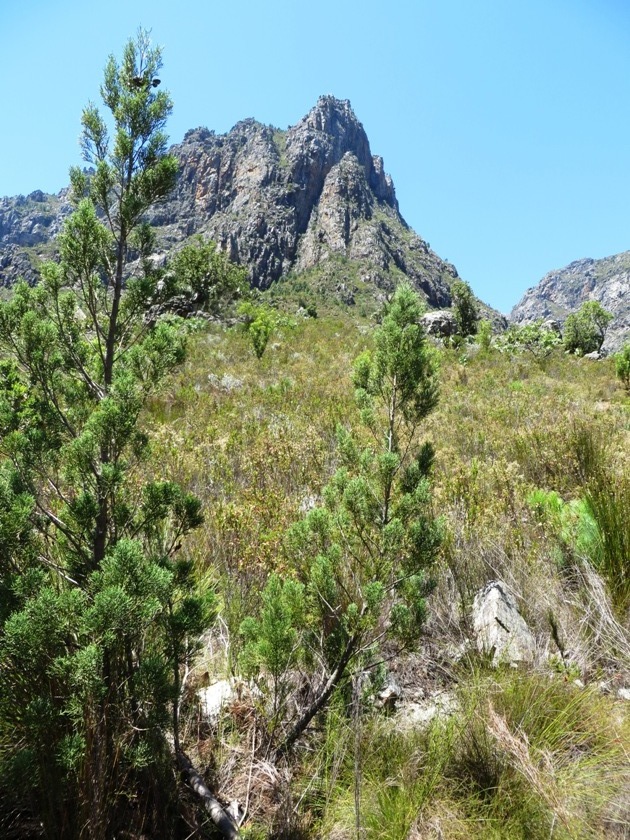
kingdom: Plantae
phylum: Tracheophyta
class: Pinopsida
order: Pinales
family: Cupressaceae
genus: Widdringtonia
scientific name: Widdringtonia nodiflora
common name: Cape cypress
